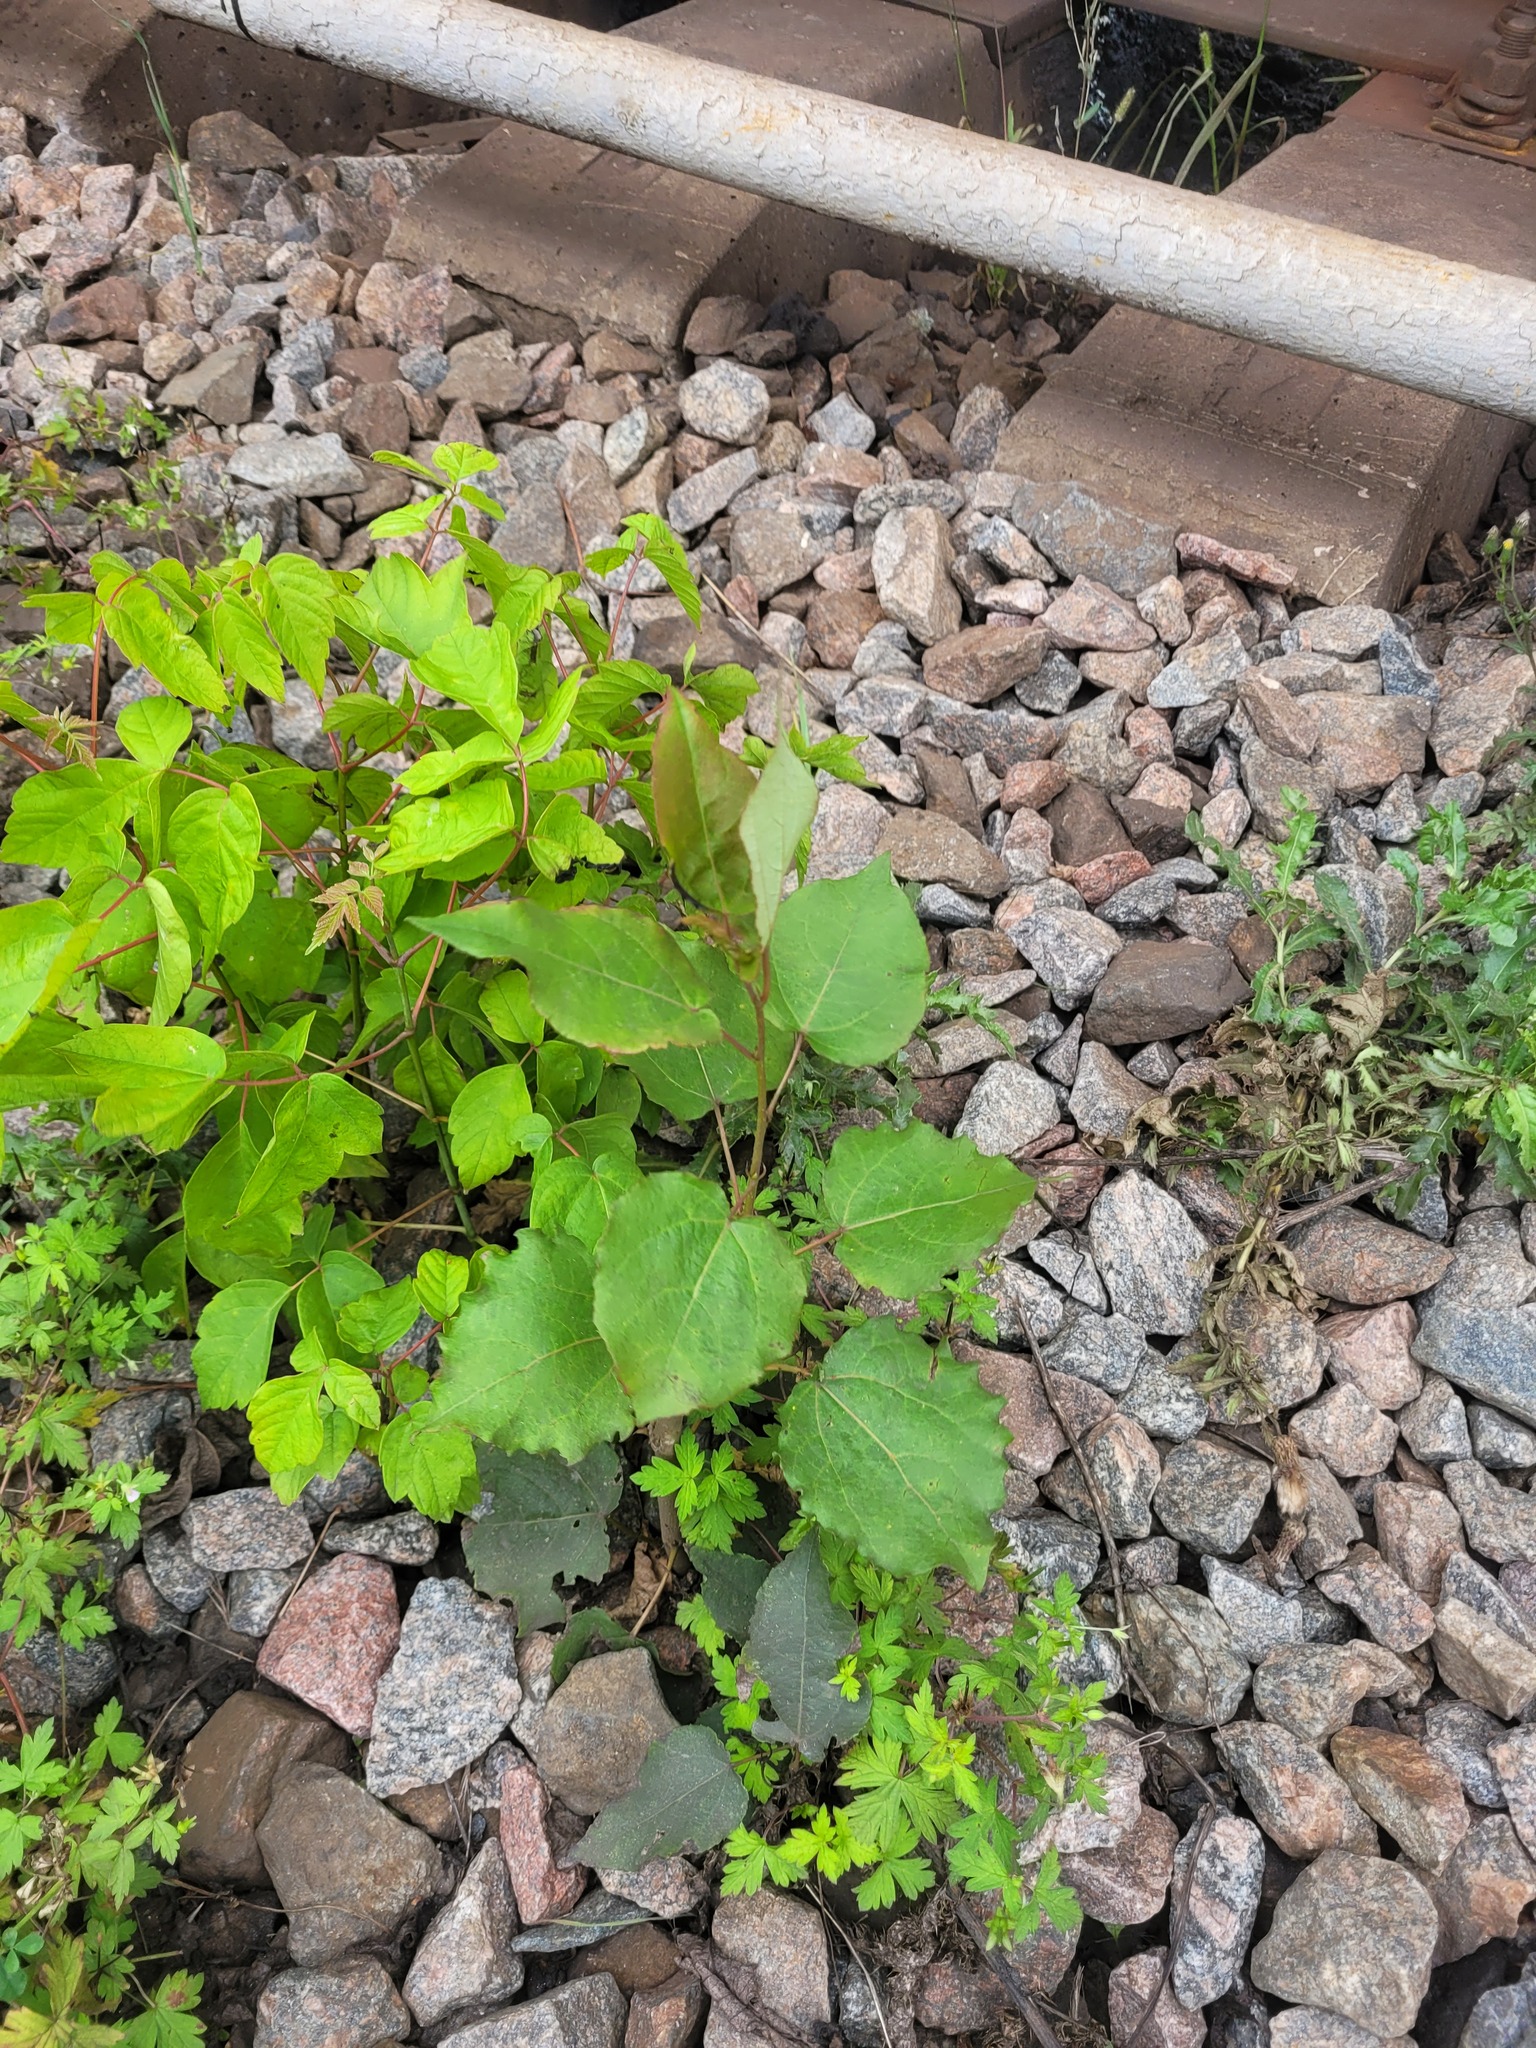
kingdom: Plantae
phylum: Tracheophyta
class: Magnoliopsida
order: Malpighiales
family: Salicaceae
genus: Populus
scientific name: Populus tremula
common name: European aspen
